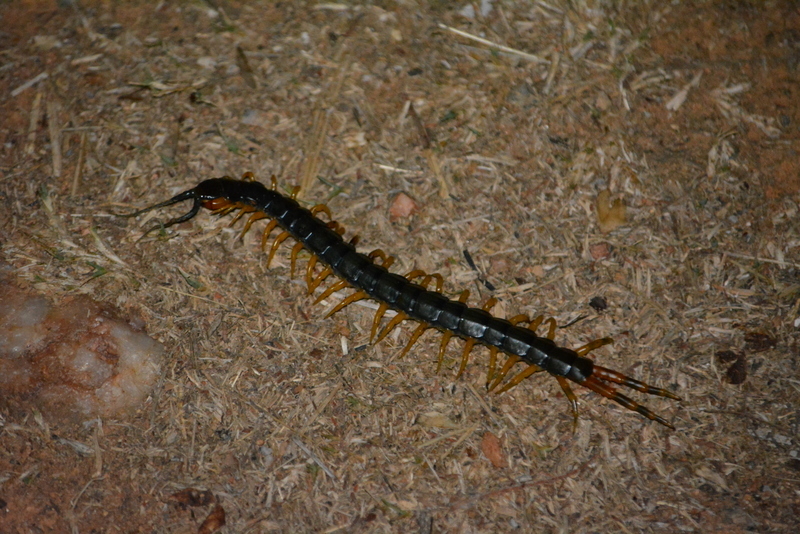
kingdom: Animalia
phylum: Arthropoda
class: Chilopoda
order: Scolopendromorpha
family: Scolopendridae
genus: Ethmostigmus
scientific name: Ethmostigmus trigonopodus
